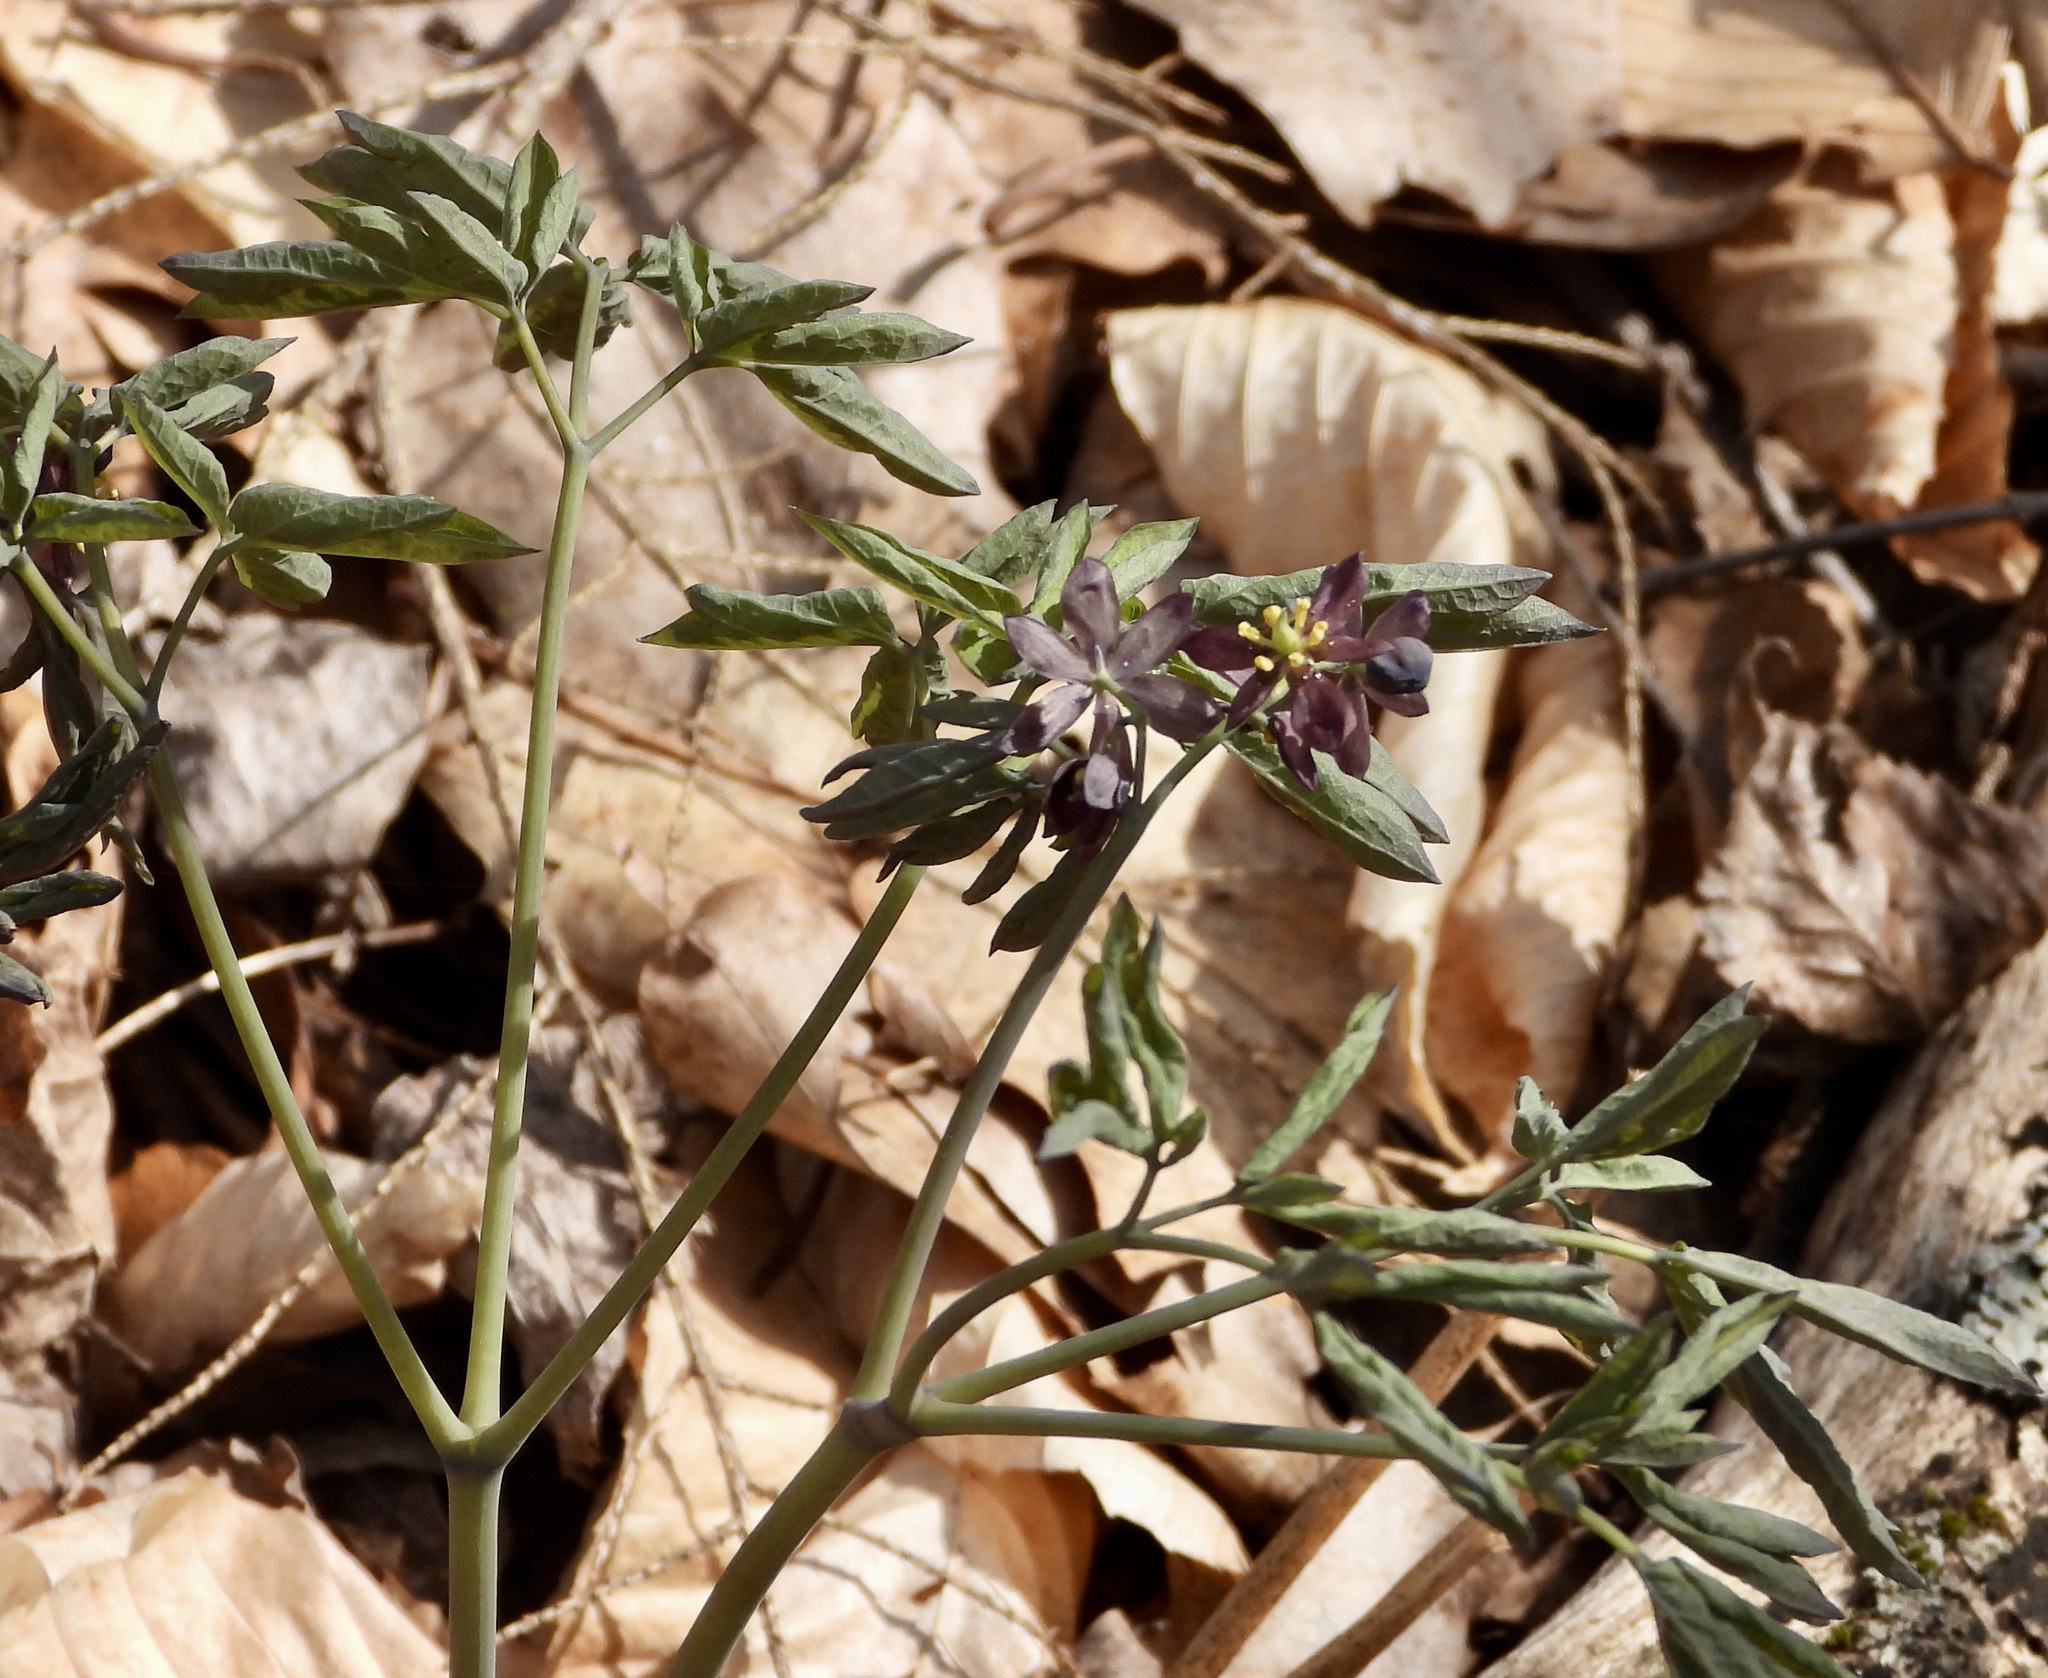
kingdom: Plantae
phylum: Tracheophyta
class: Magnoliopsida
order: Ranunculales
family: Berberidaceae
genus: Caulophyllum
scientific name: Caulophyllum giganteum
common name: Blue cohosh
